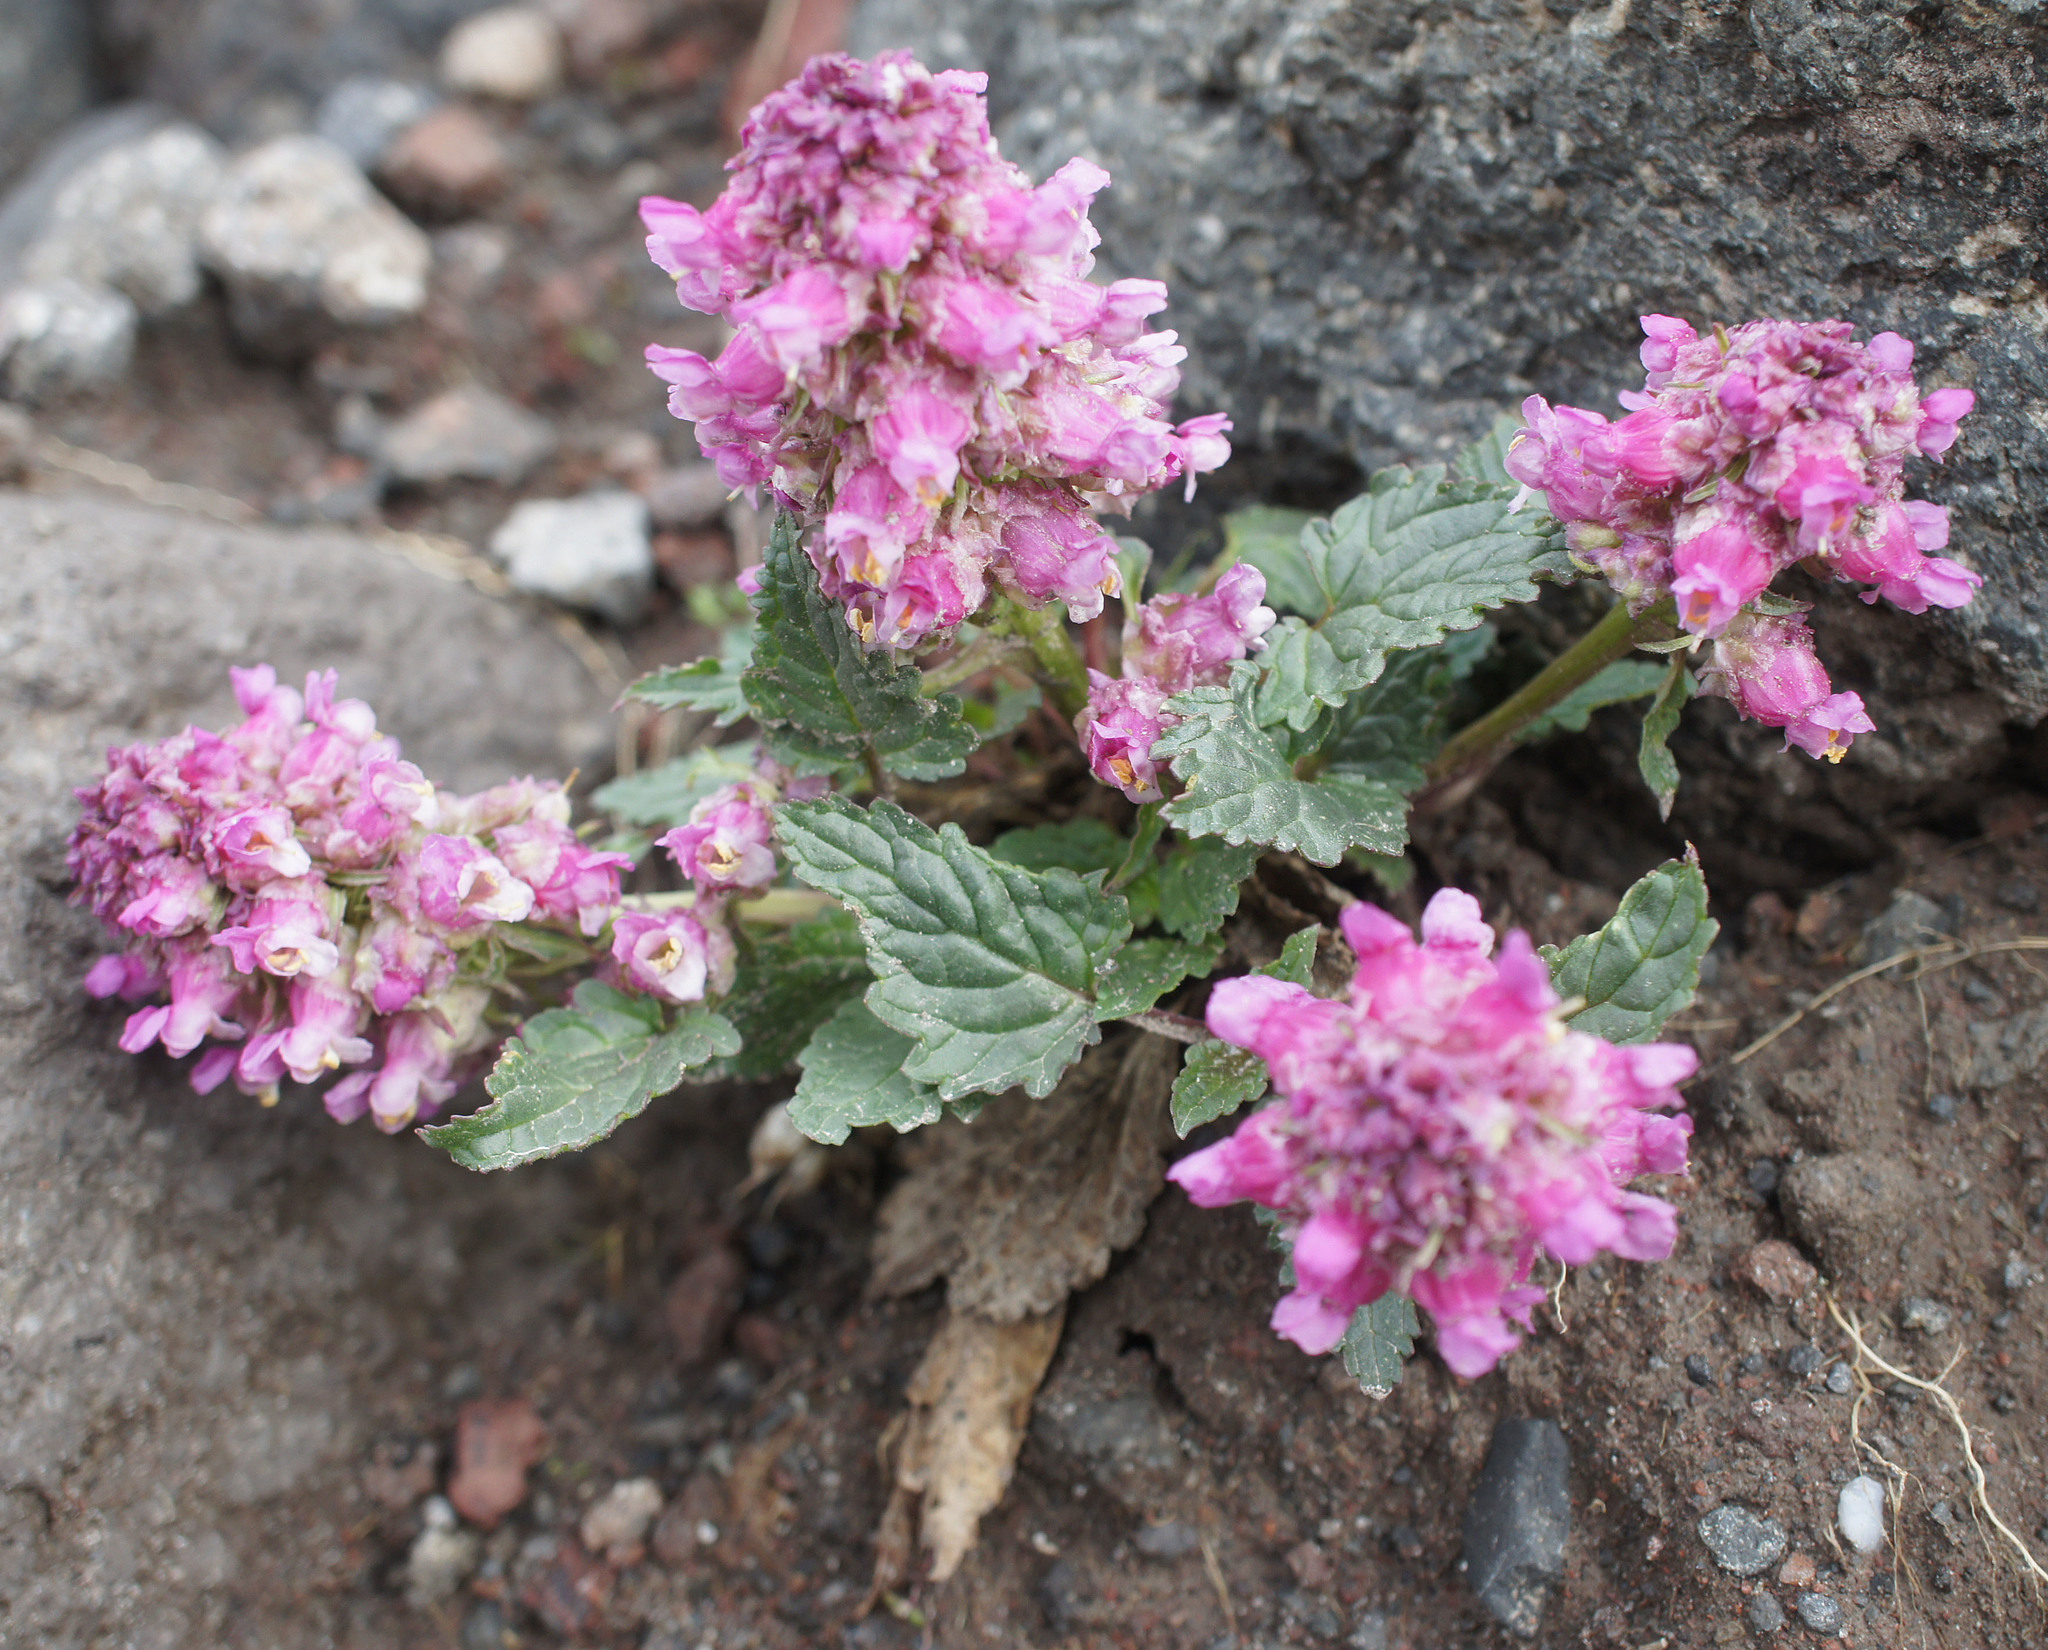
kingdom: Plantae
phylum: Tracheophyta
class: Magnoliopsida
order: Lamiales
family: Scrophulariaceae
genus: Scrophularia
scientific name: Scrophularia minima
